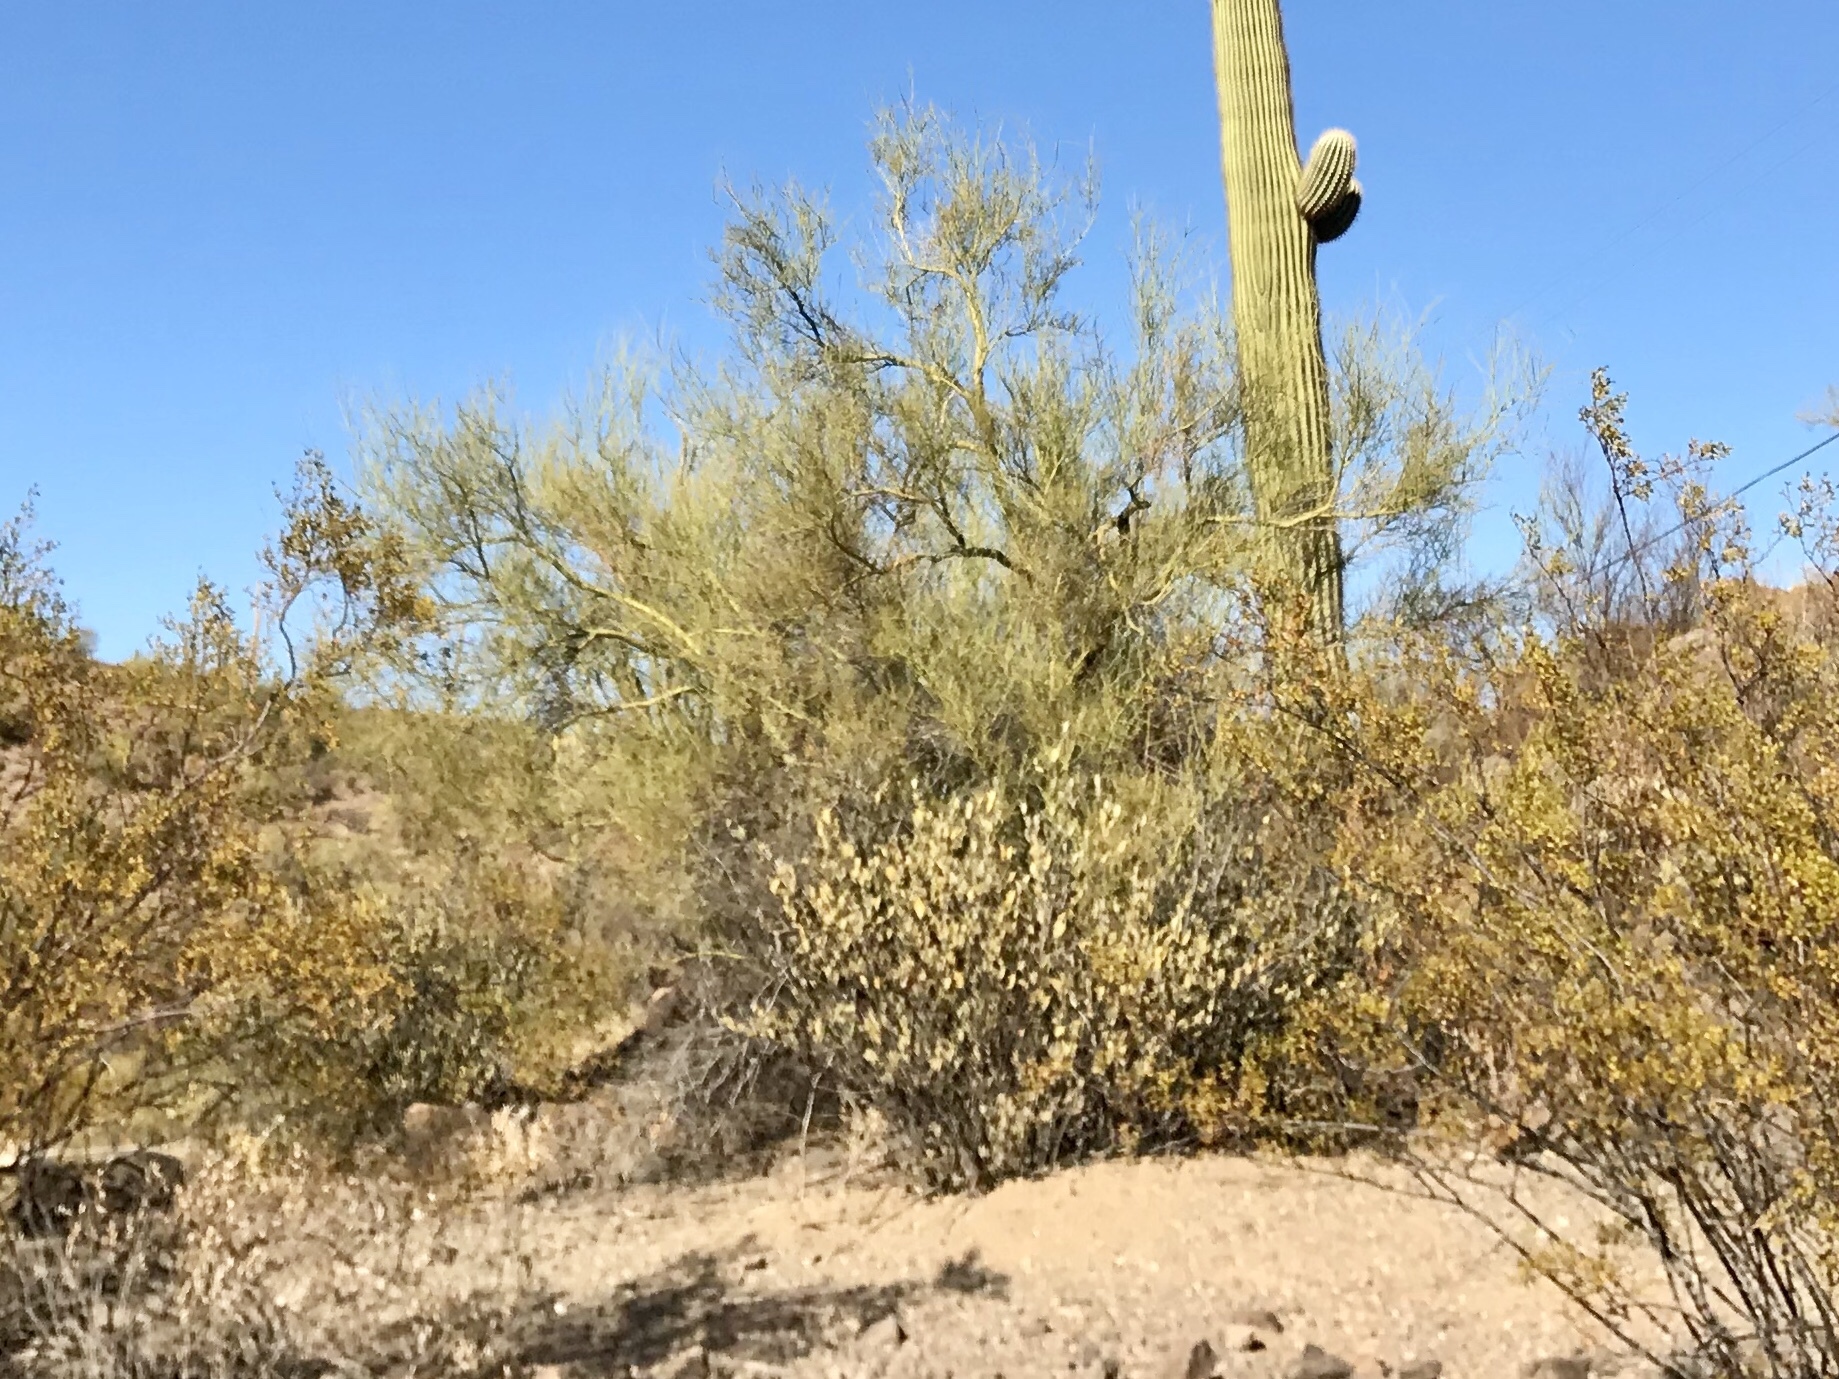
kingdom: Plantae
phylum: Tracheophyta
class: Magnoliopsida
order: Fabales
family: Fabaceae
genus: Parkinsonia
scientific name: Parkinsonia microphylla
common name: Yellow paloverde
